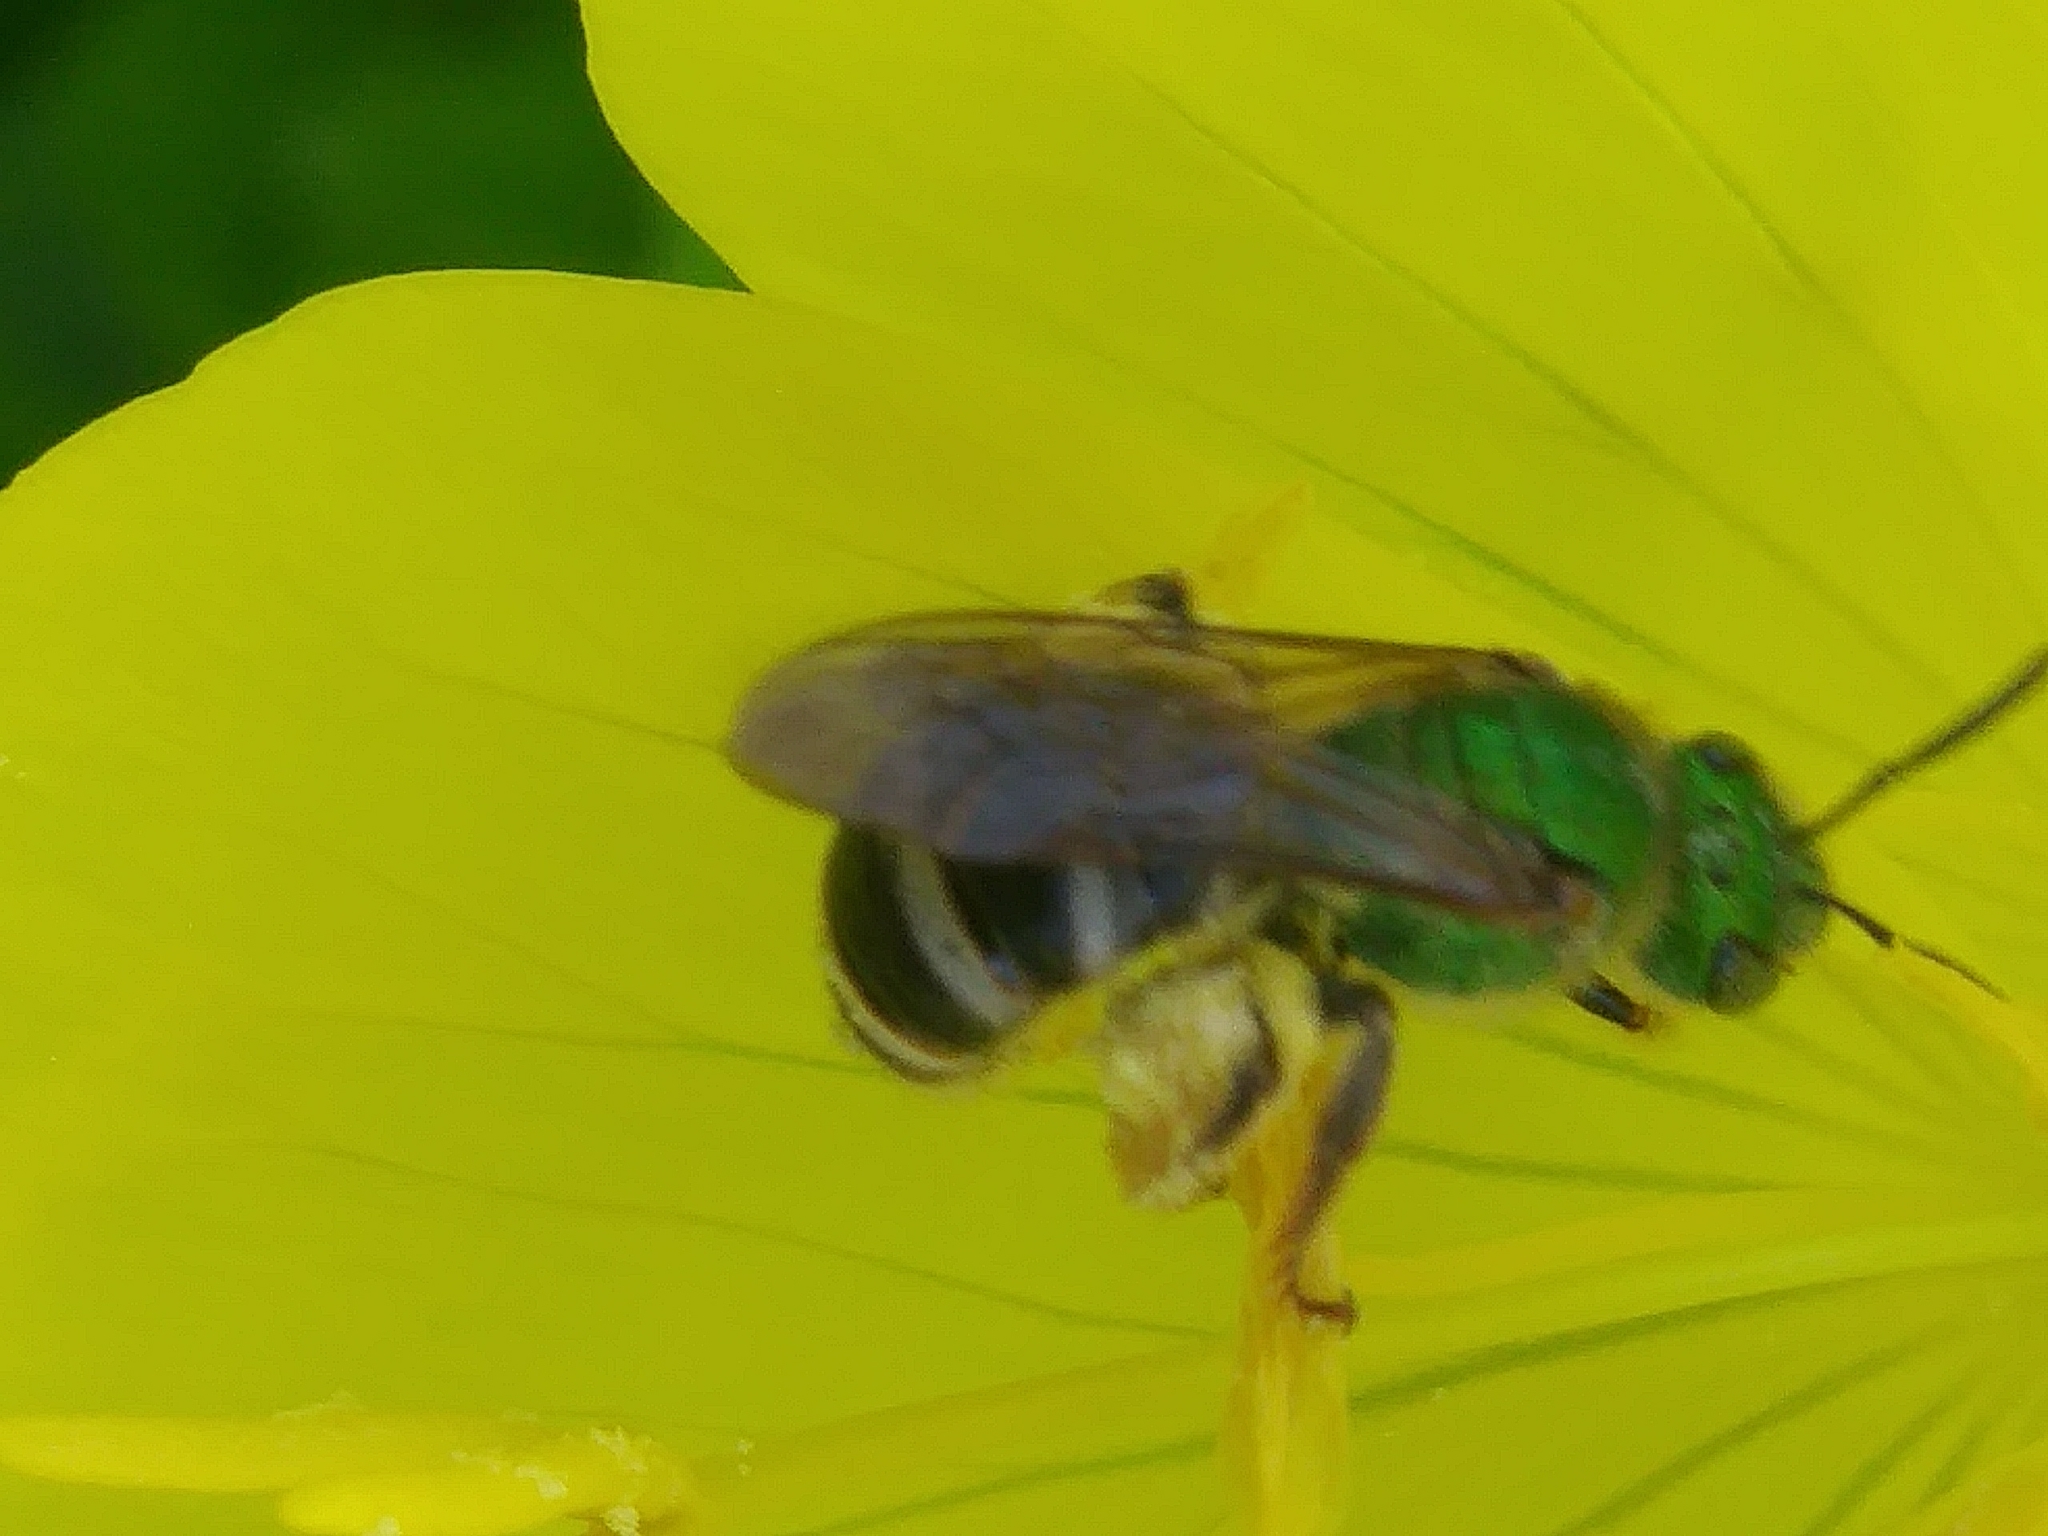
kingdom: Animalia
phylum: Arthropoda
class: Insecta
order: Hymenoptera
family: Halictidae
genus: Agapostemon
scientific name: Agapostemon virescens
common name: Bicolored striped sweat bee
